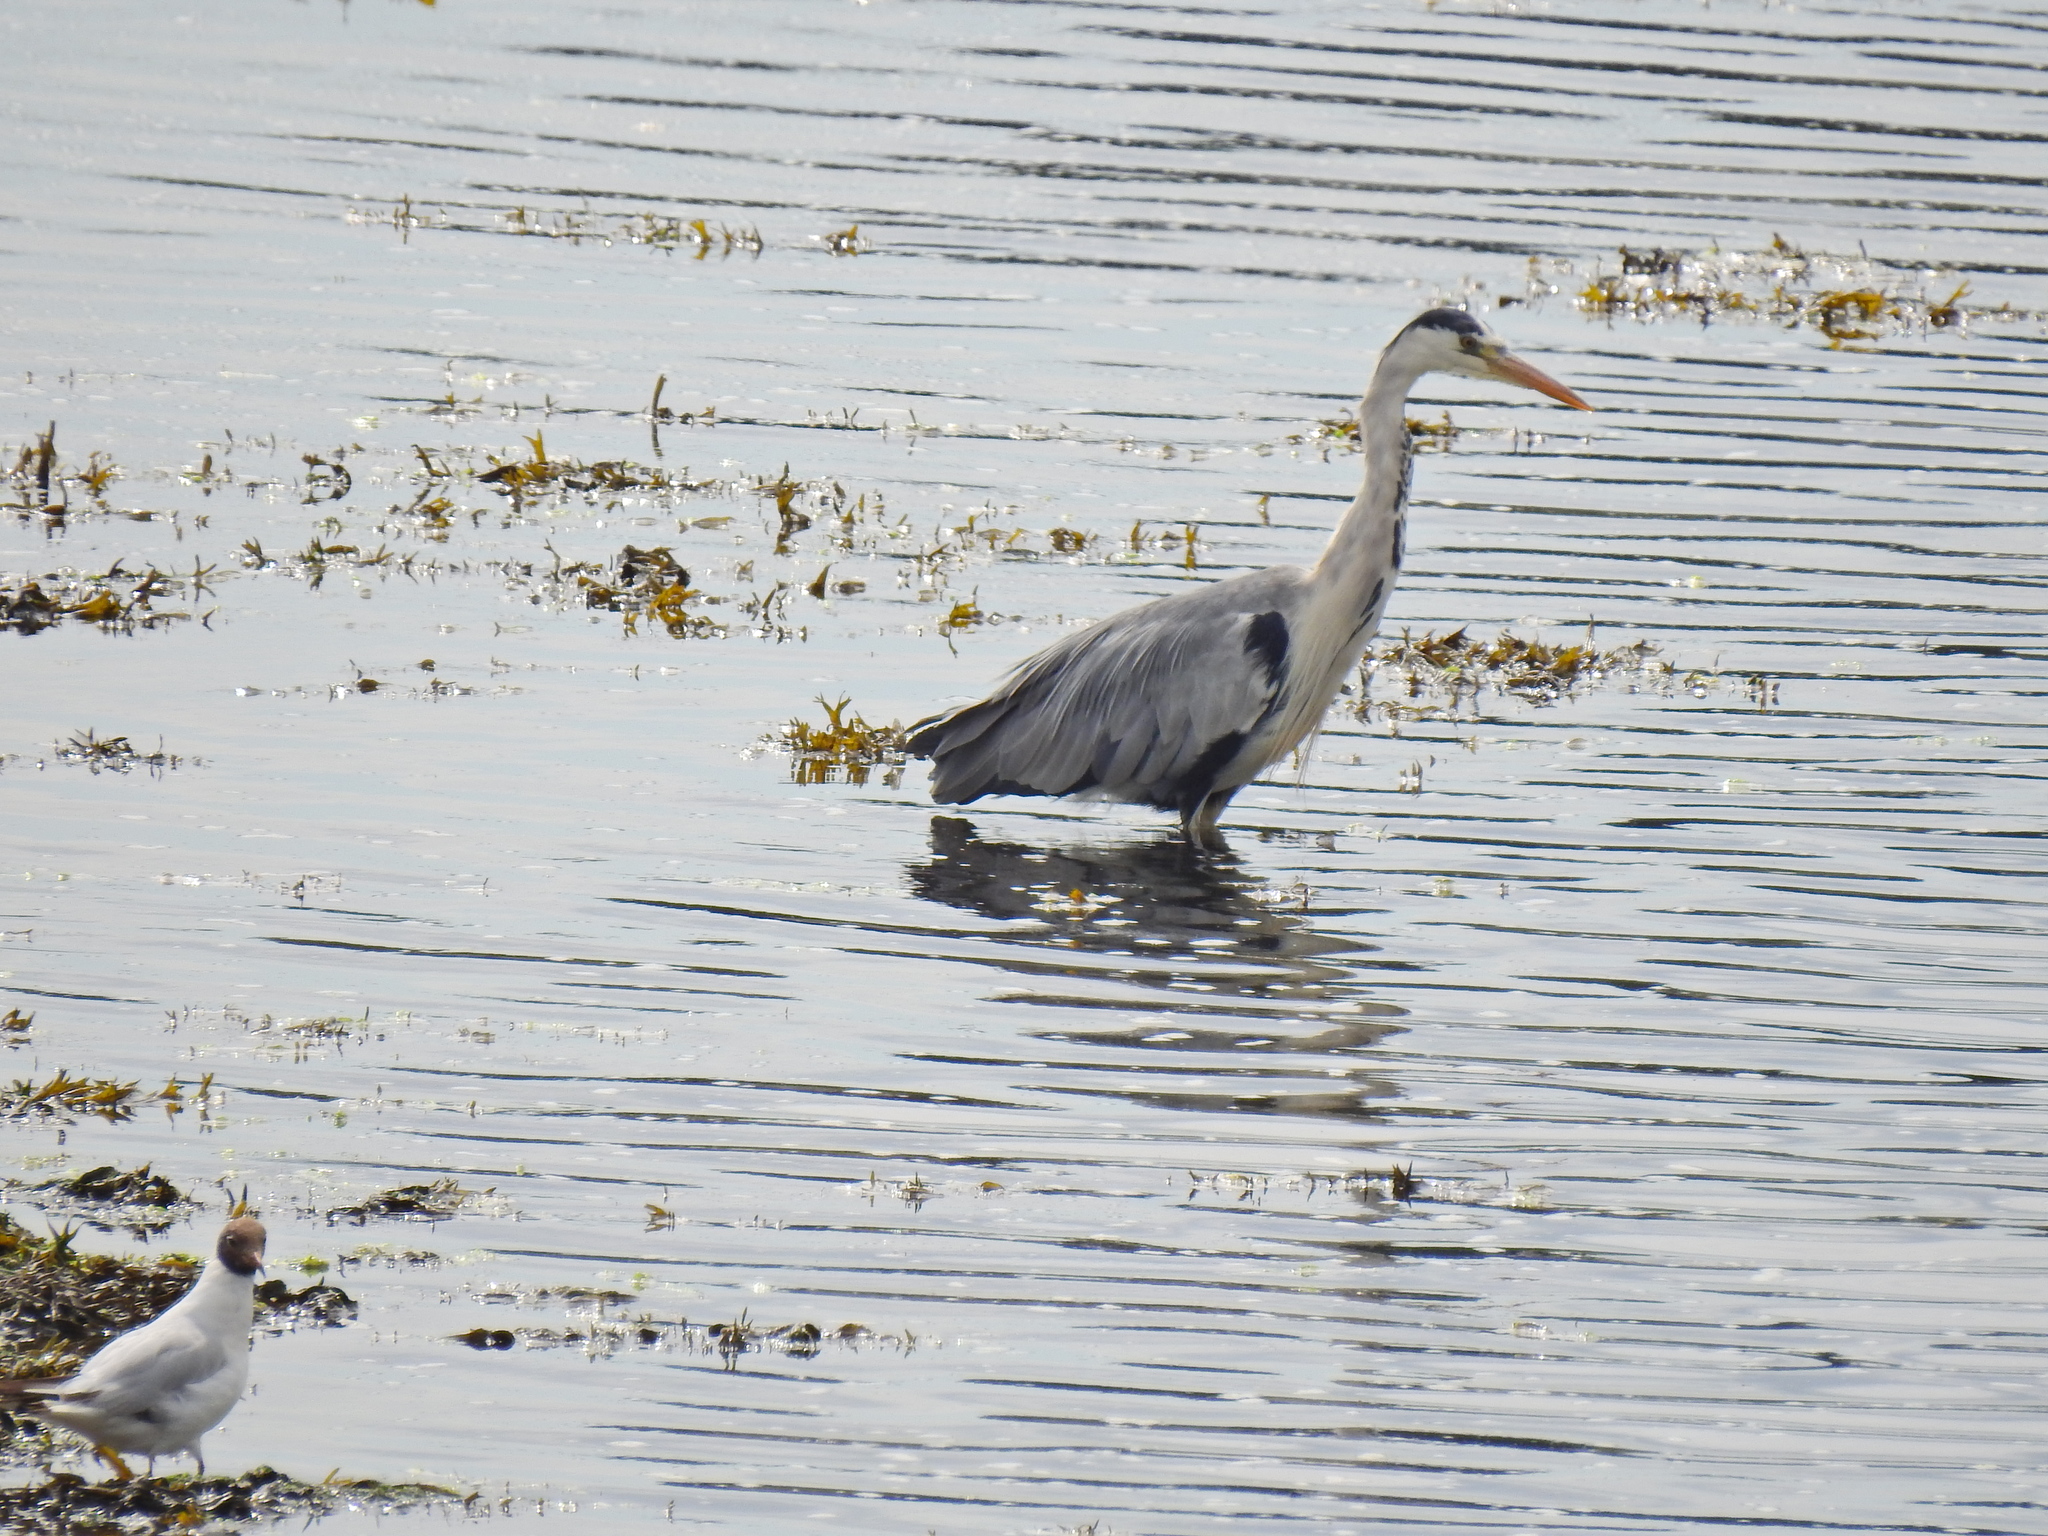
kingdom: Animalia
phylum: Chordata
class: Aves
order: Pelecaniformes
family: Ardeidae
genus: Ardea
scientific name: Ardea cinerea
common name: Grey heron
